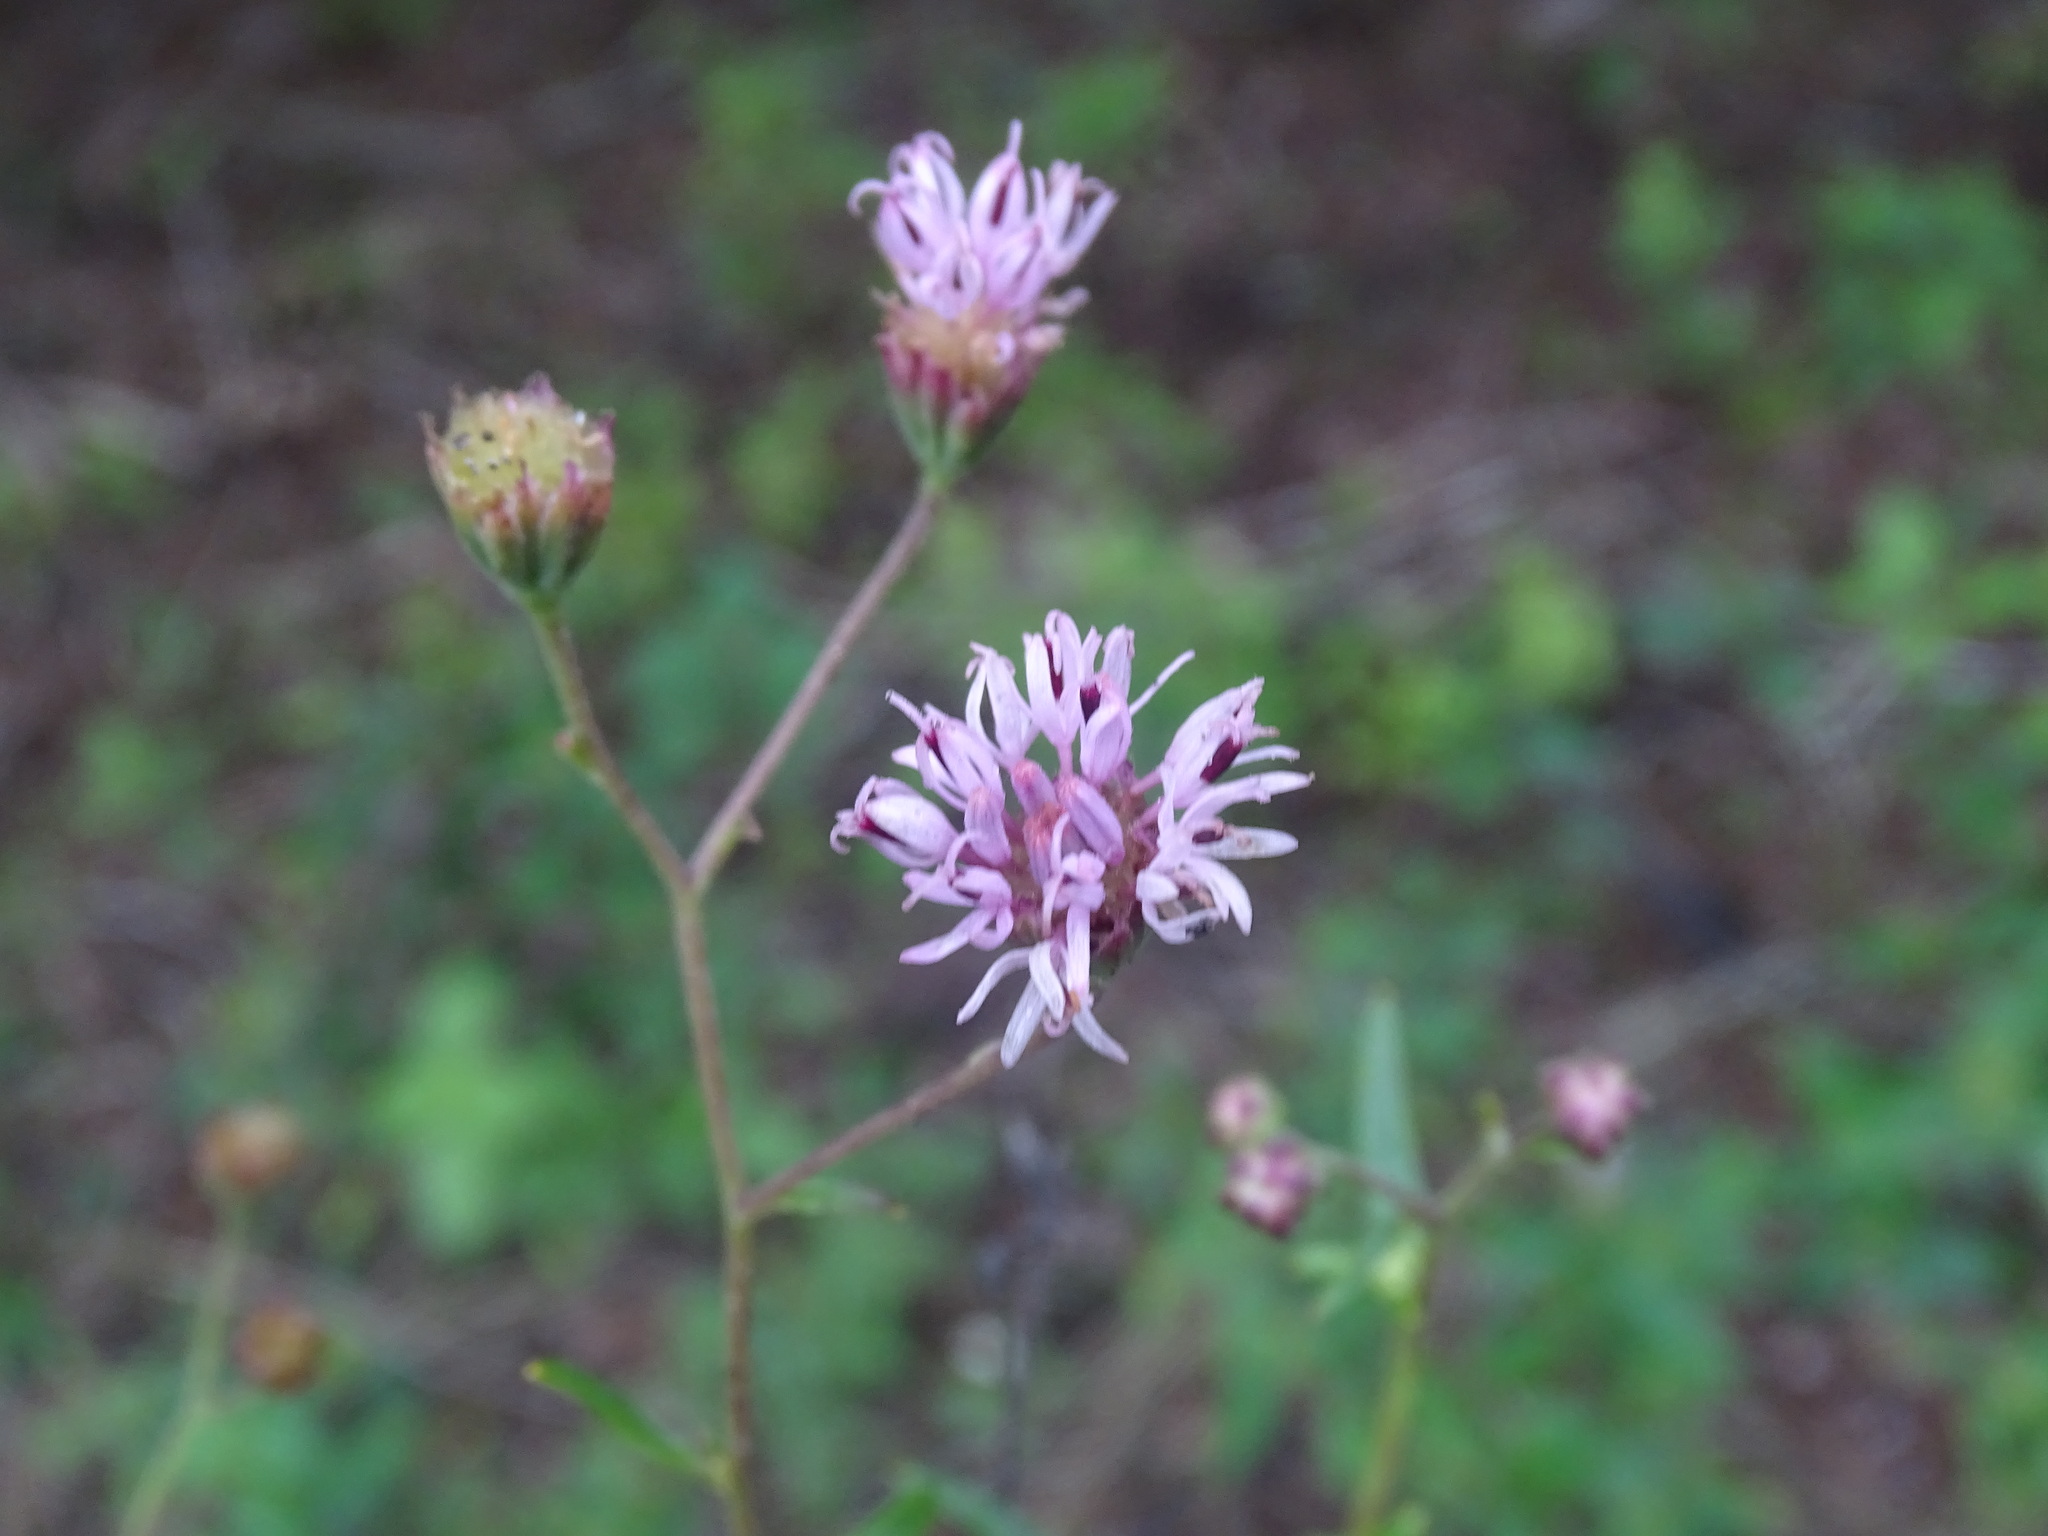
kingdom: Plantae
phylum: Tracheophyta
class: Magnoliopsida
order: Asterales
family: Asteraceae
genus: Palafoxia
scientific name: Palafoxia texana
